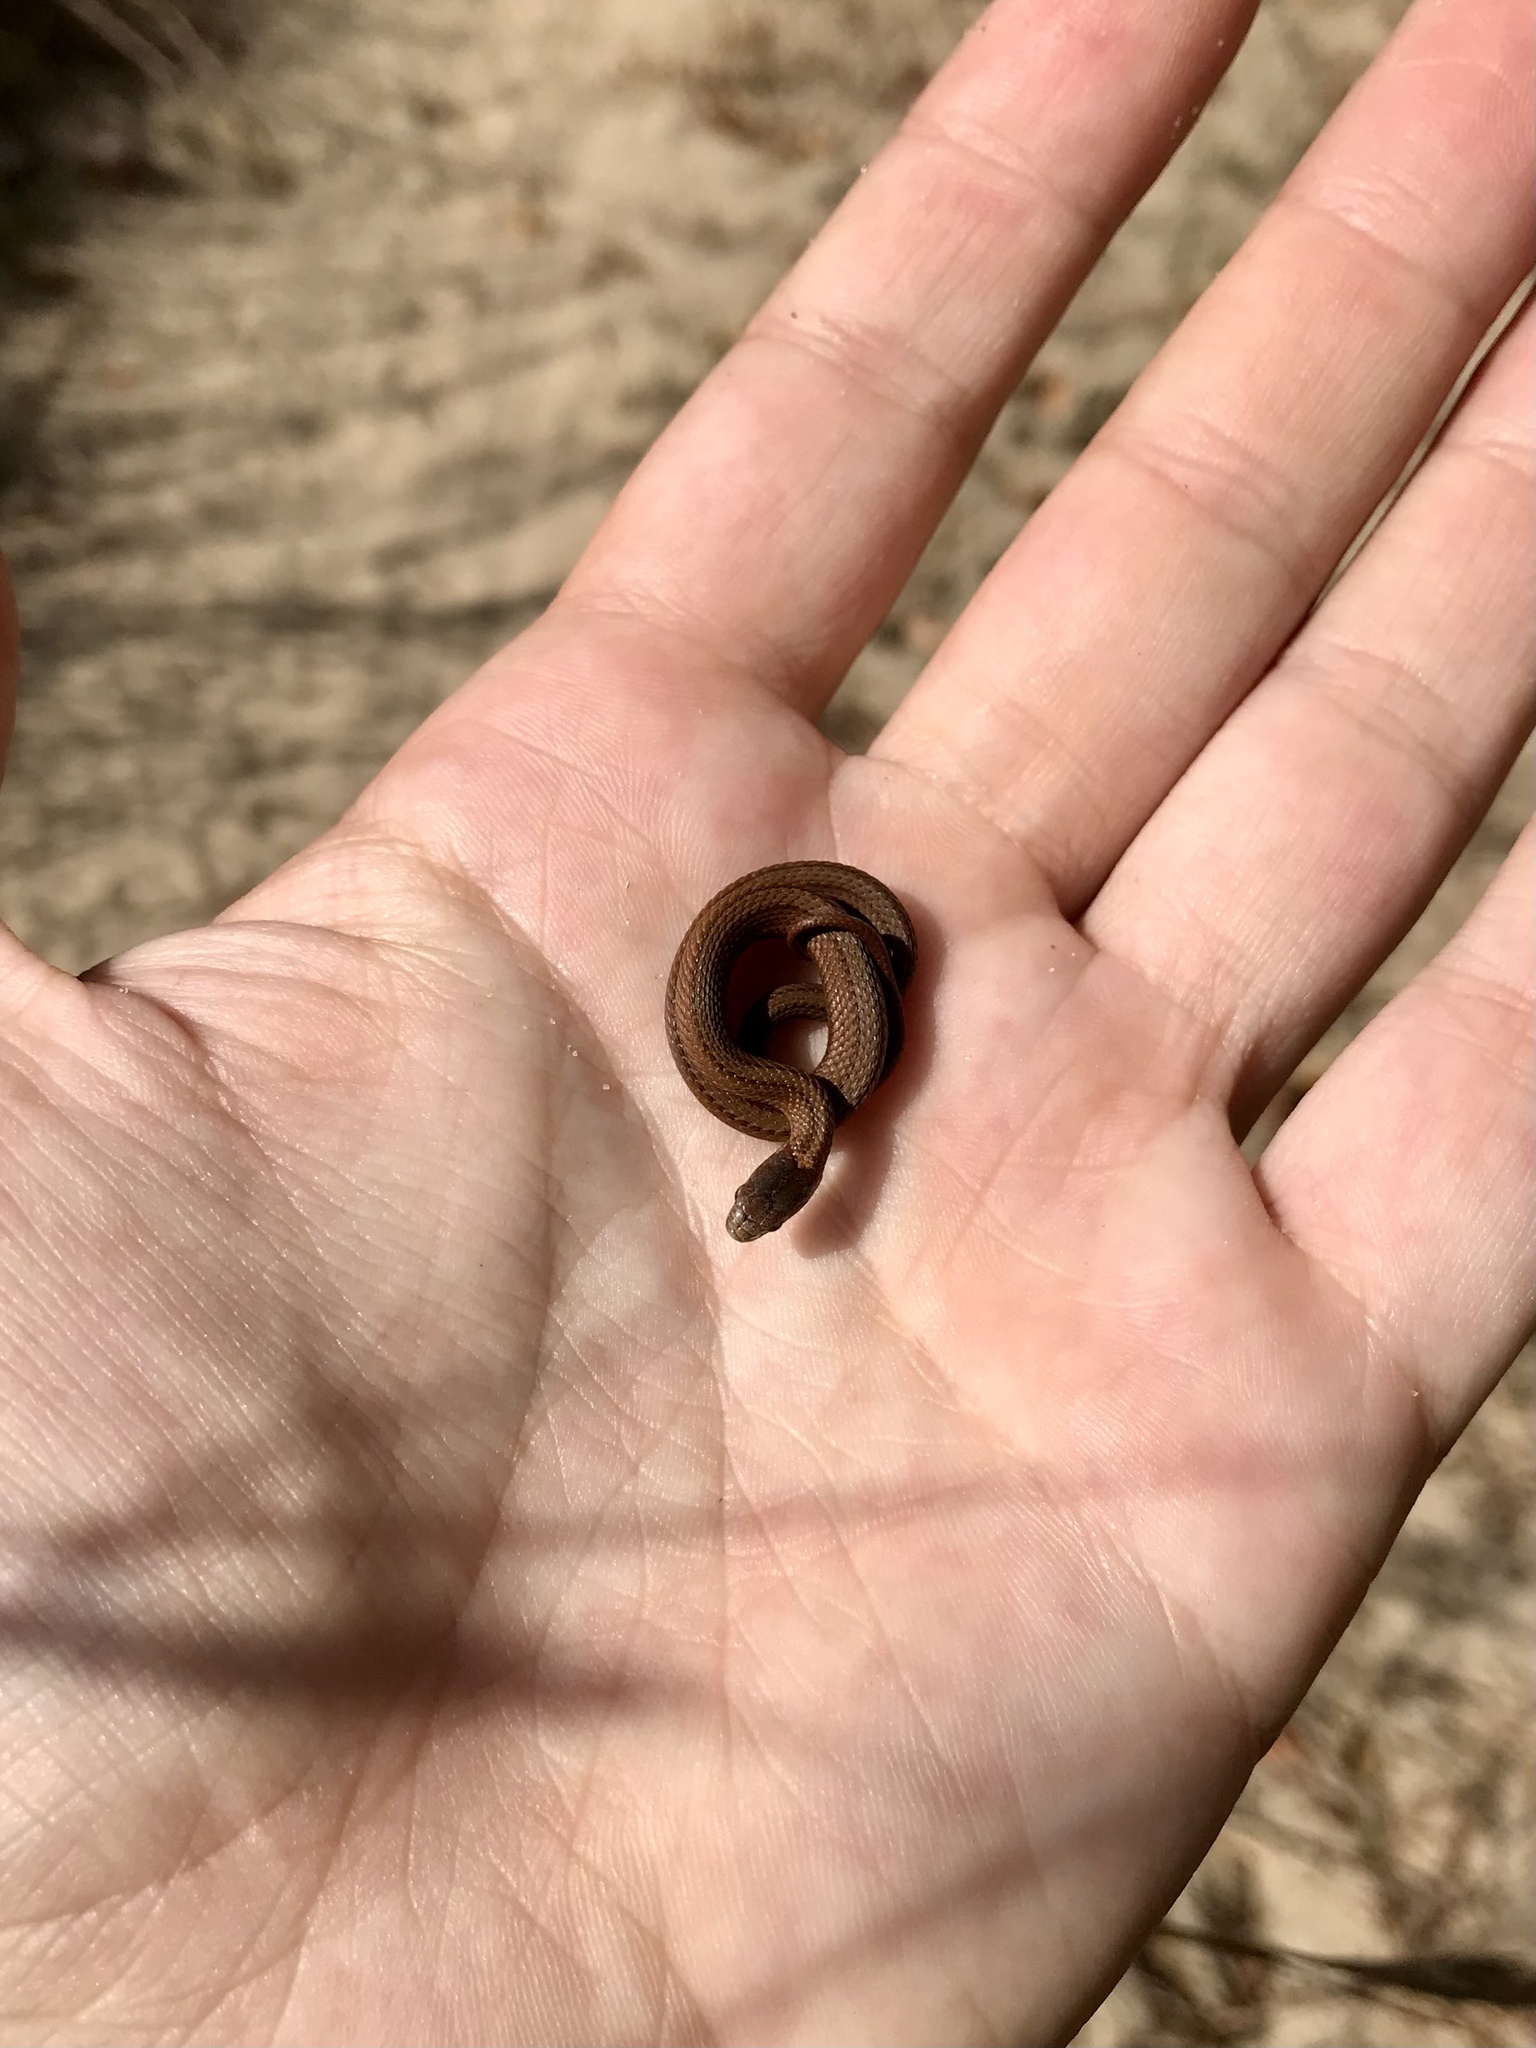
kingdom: Animalia
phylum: Chordata
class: Squamata
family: Colubridae
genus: Storeria
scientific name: Storeria occipitomaculata
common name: Redbelly snake
